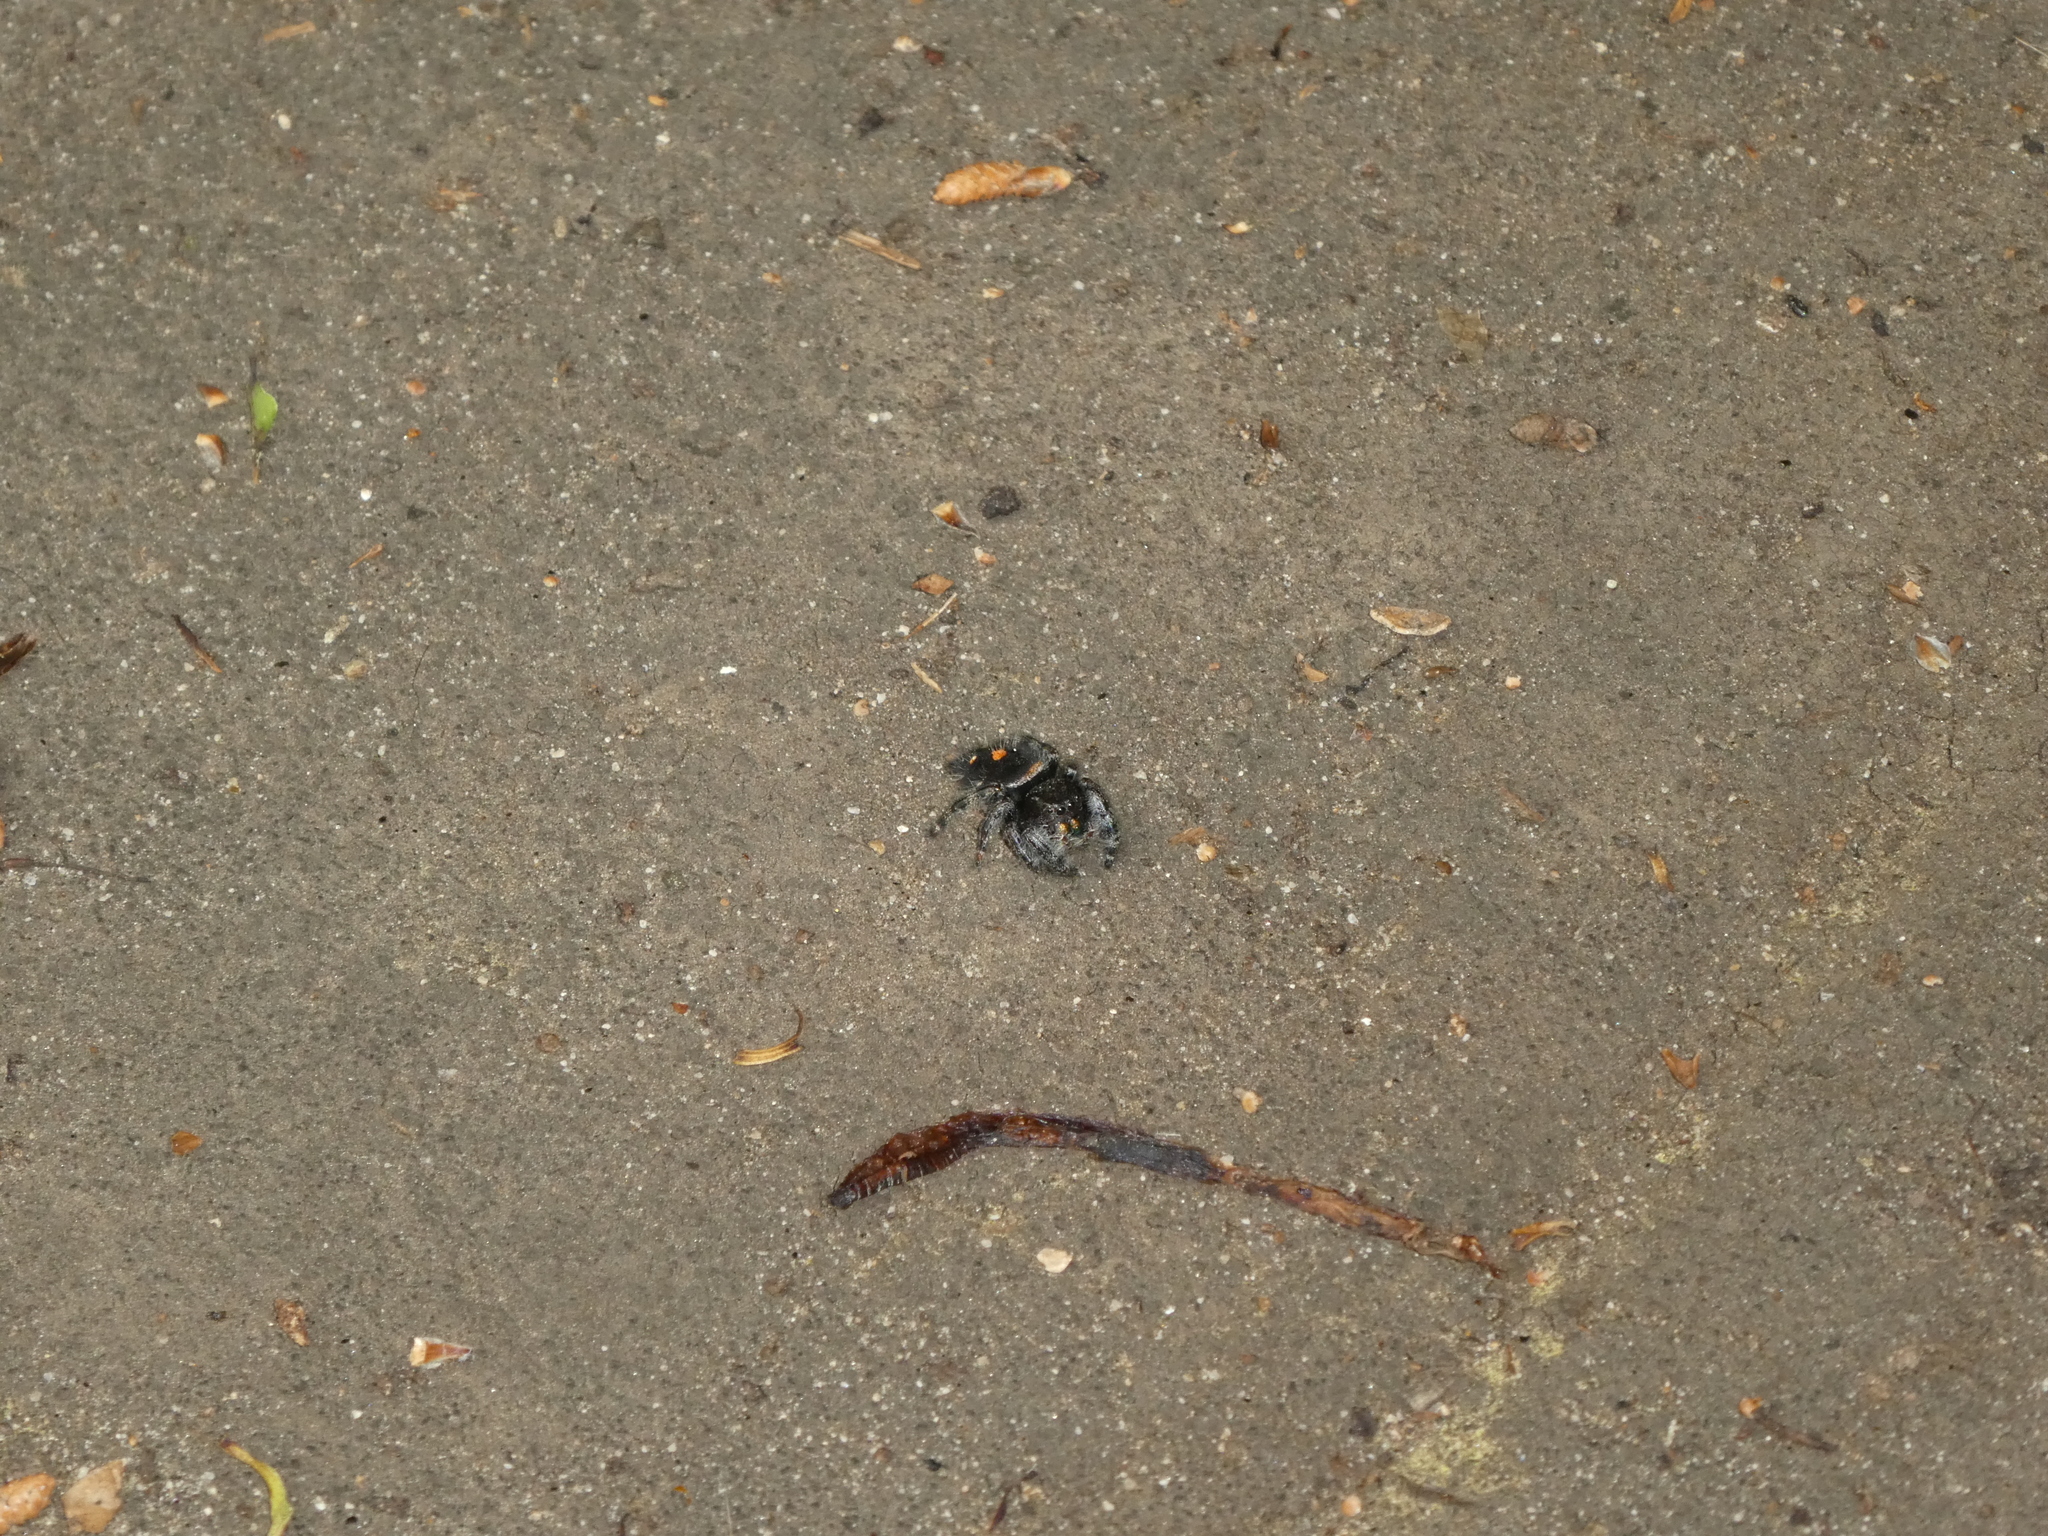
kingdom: Animalia
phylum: Arthropoda
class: Arachnida
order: Araneae
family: Salticidae
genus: Phidippus
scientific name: Phidippus audax
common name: Bold jumper
